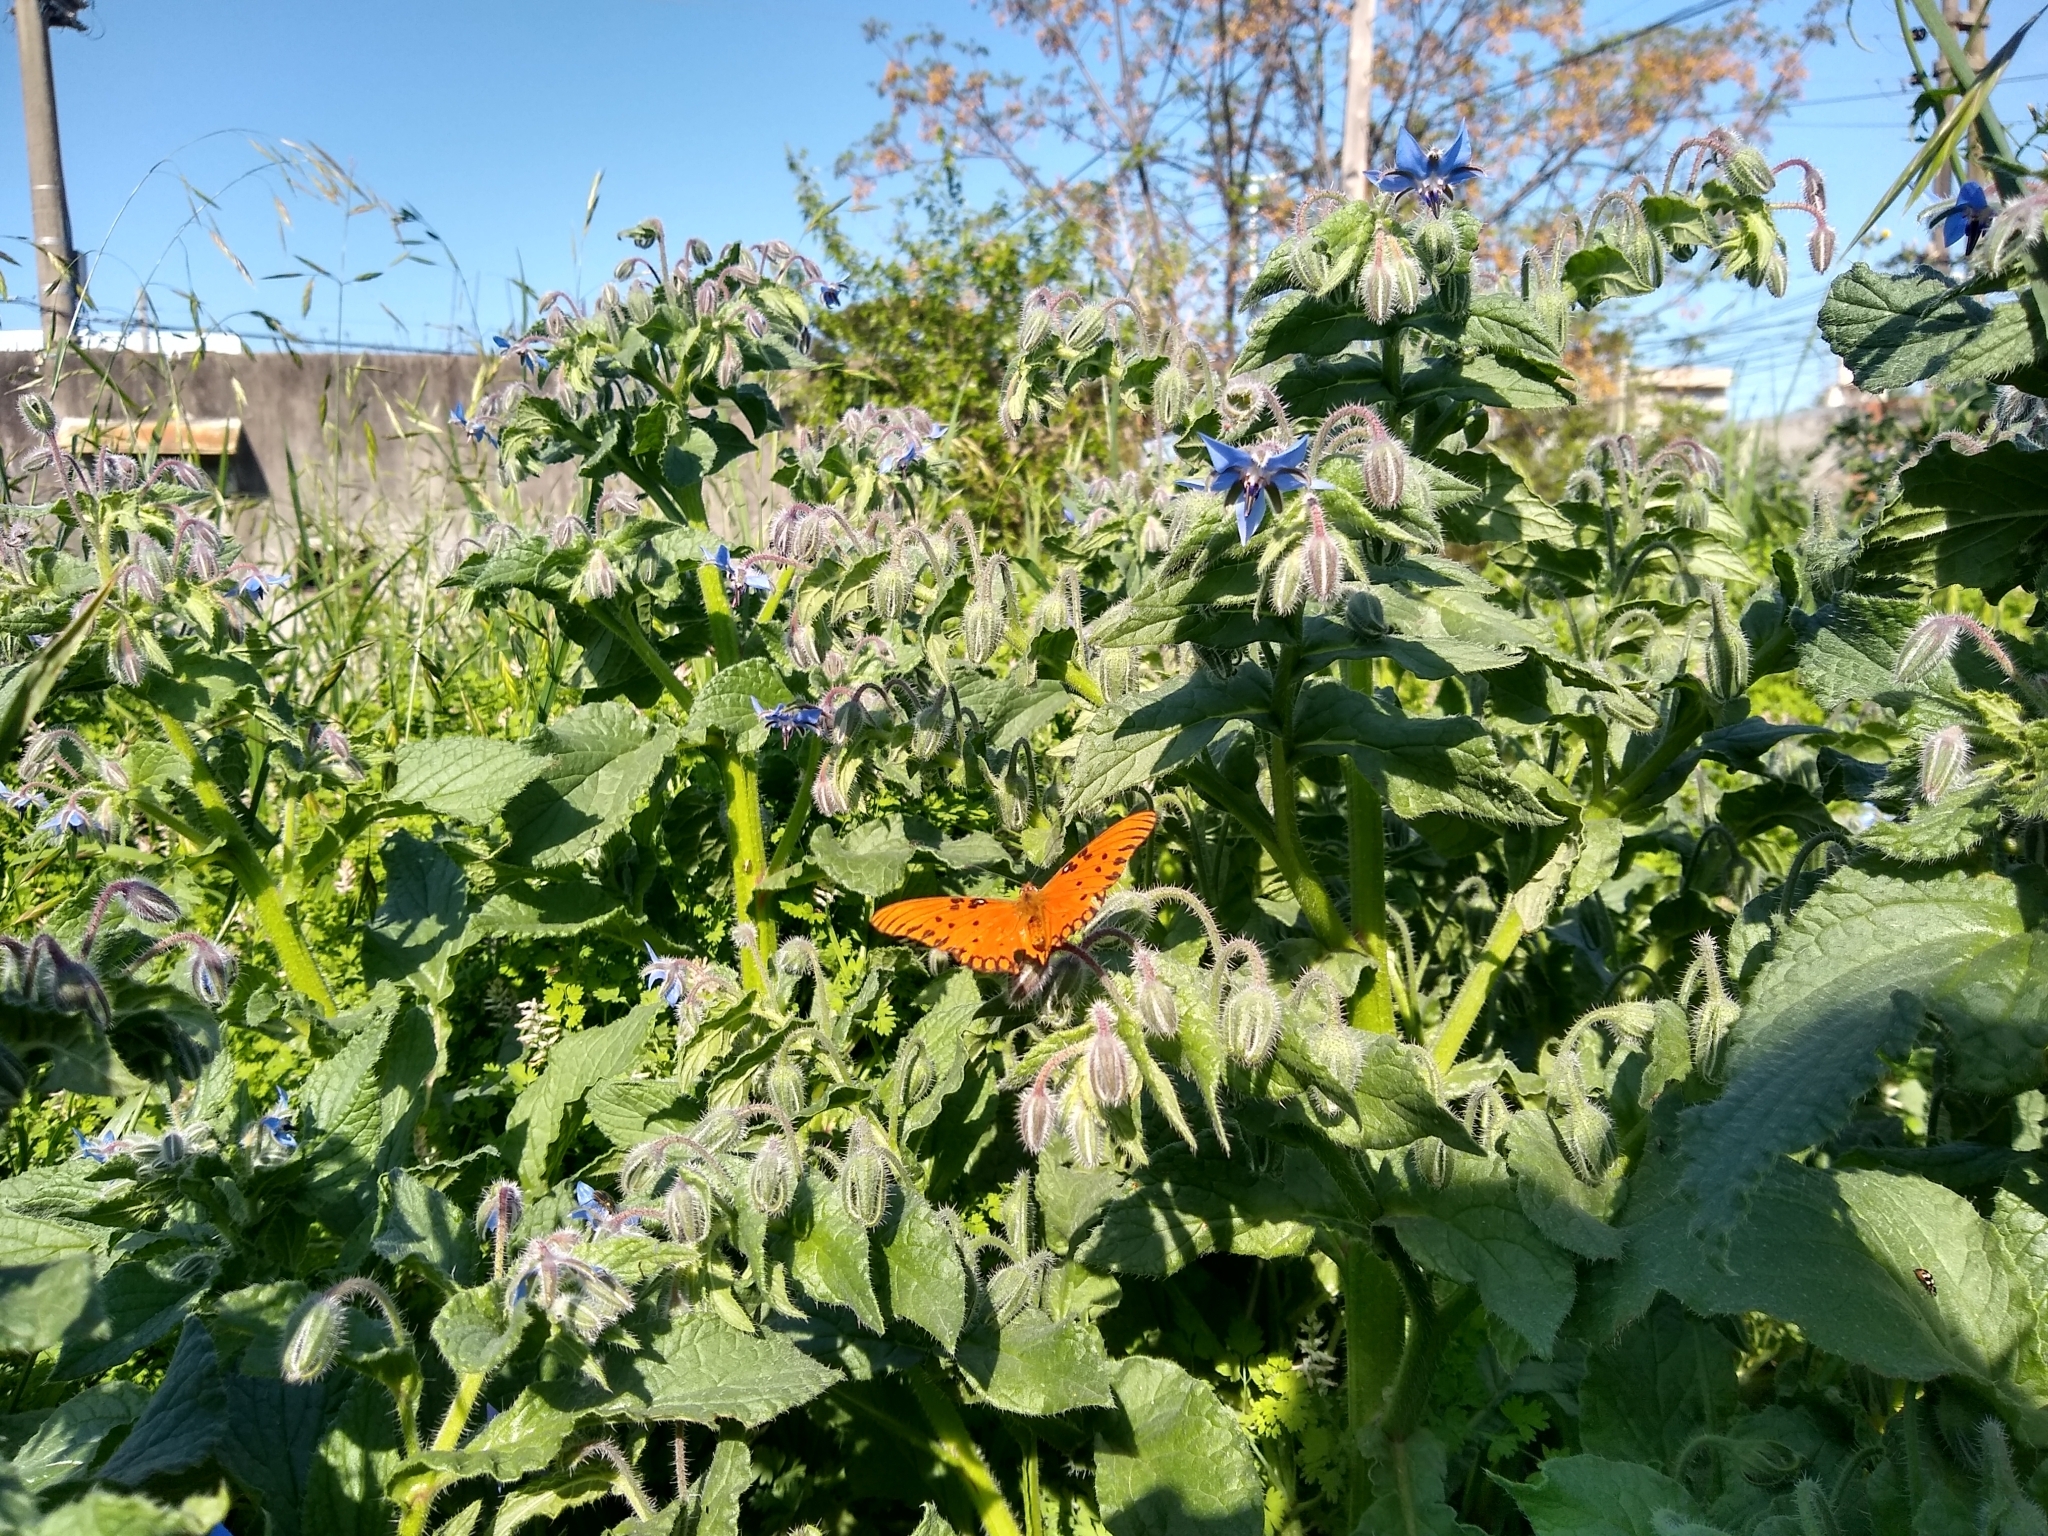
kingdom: Plantae
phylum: Tracheophyta
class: Magnoliopsida
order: Boraginales
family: Boraginaceae
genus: Borago
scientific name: Borago officinalis
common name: Borage
